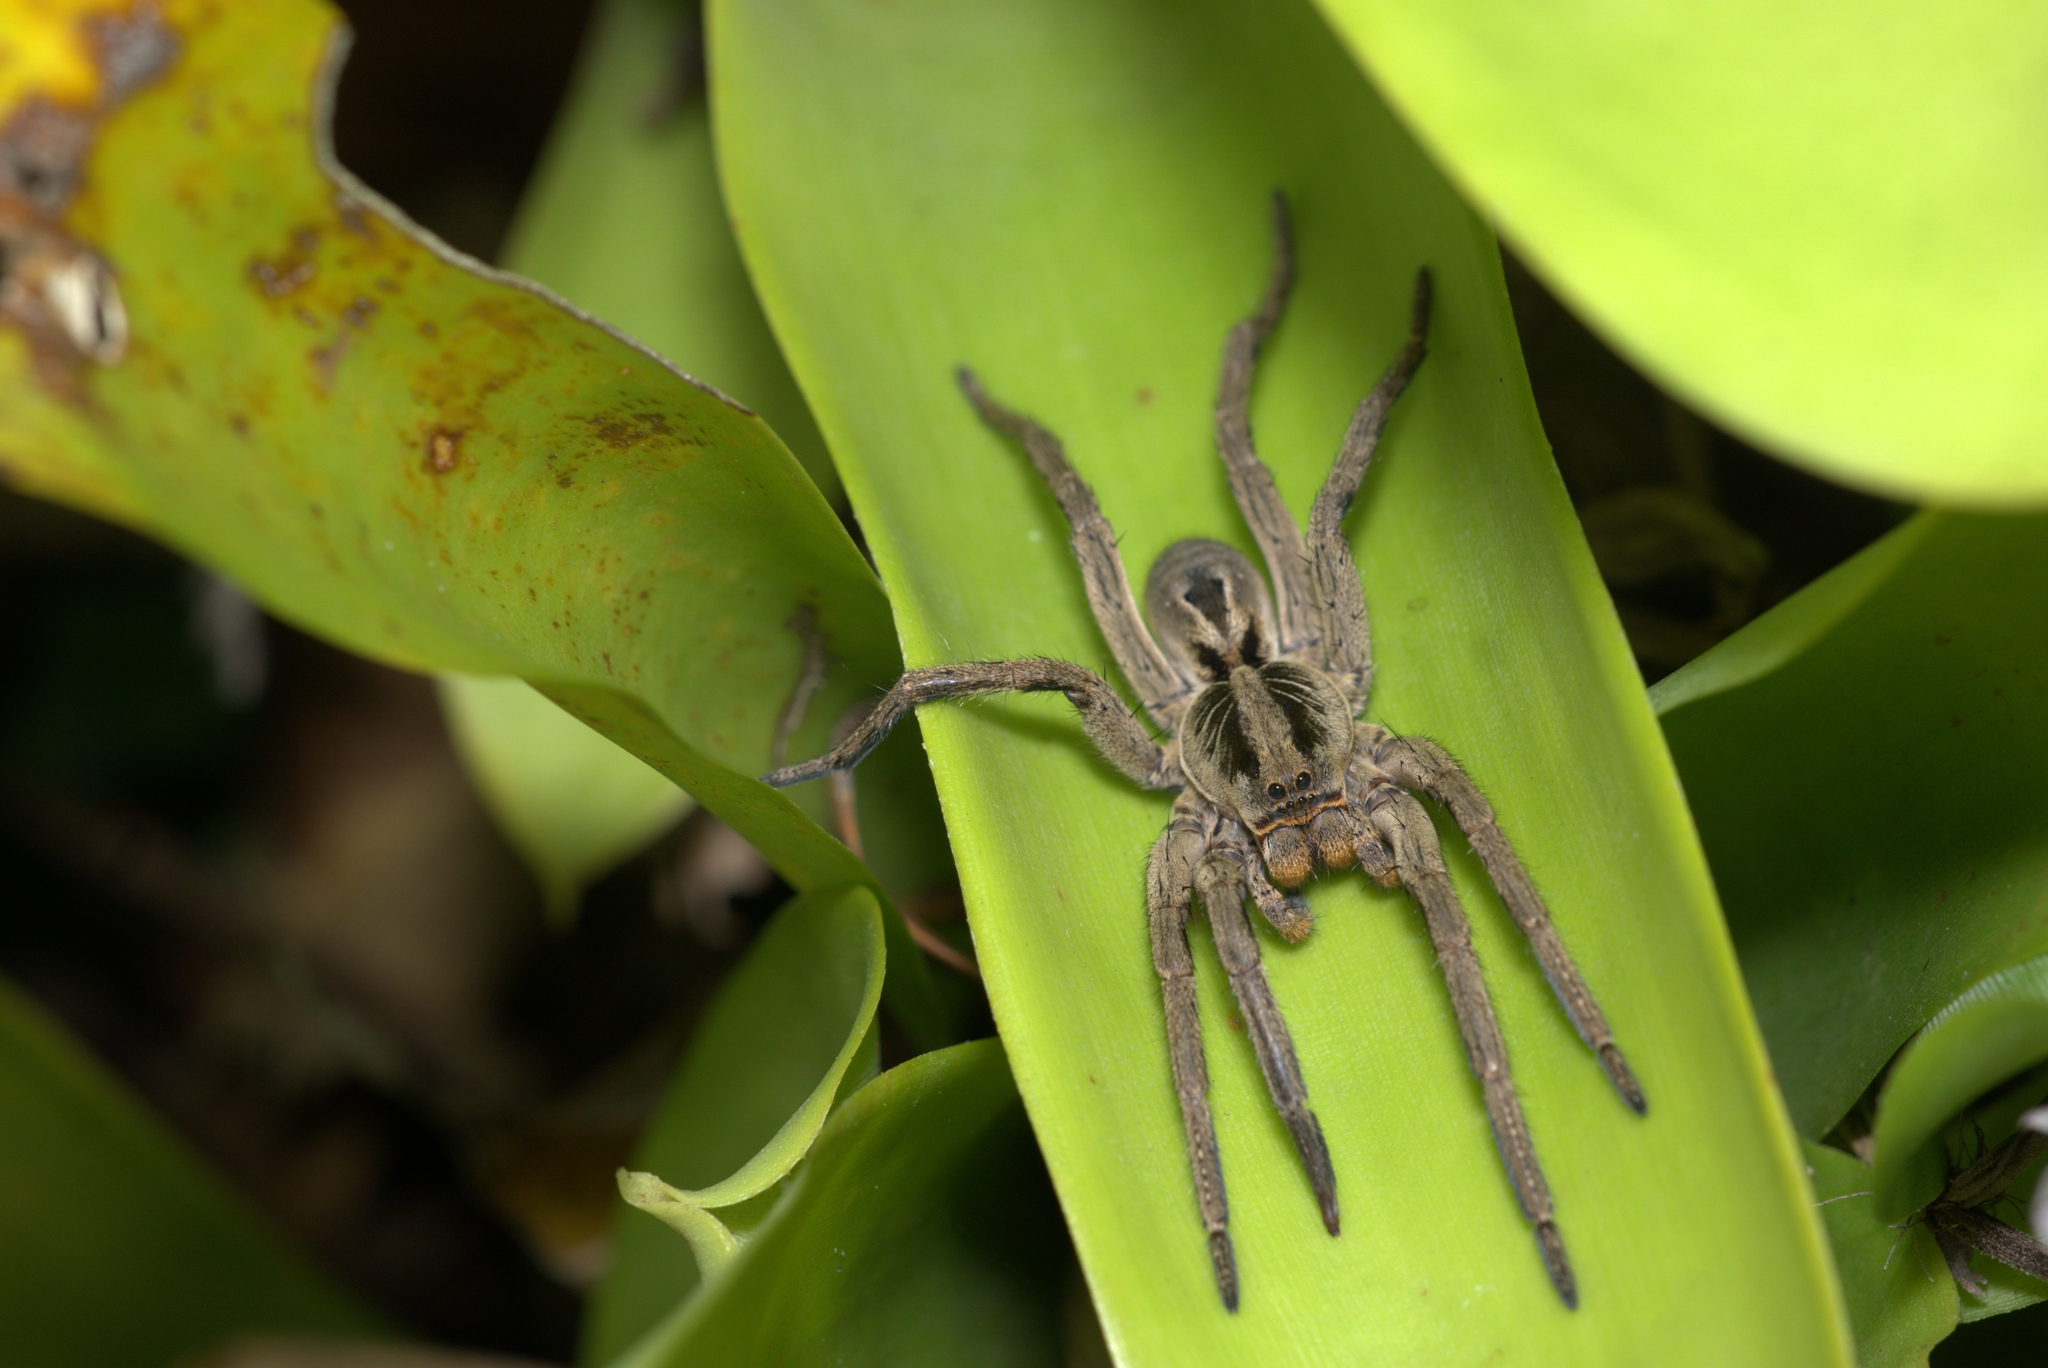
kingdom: Animalia
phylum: Arthropoda
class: Arachnida
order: Araneae
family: Lycosidae
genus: Lycosa
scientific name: Lycosa erythrognatha
